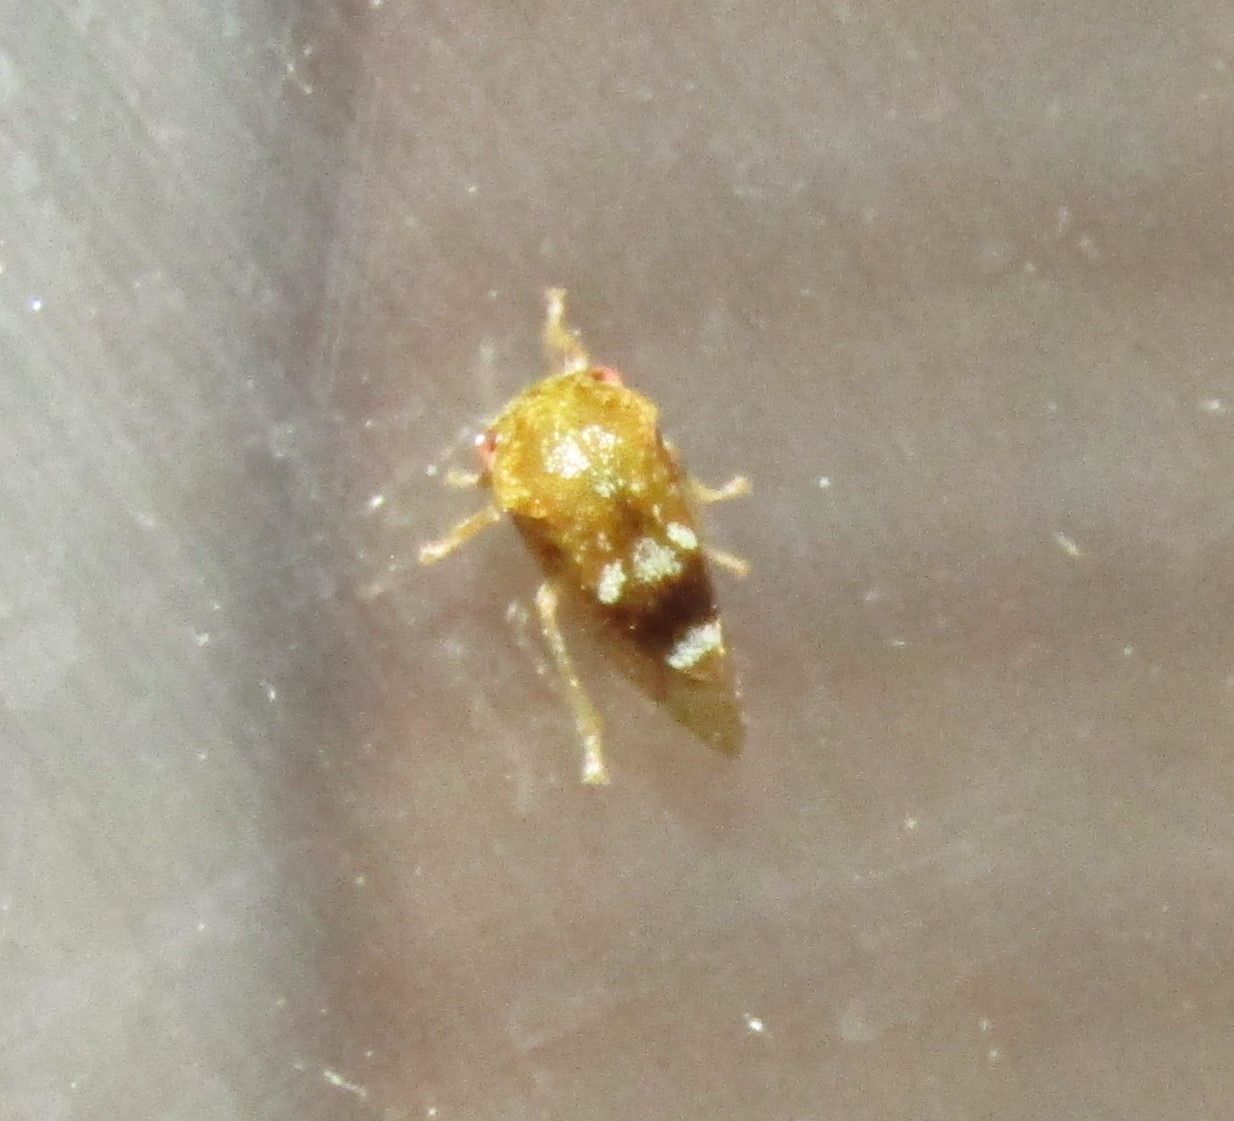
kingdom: Animalia
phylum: Arthropoda
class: Insecta
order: Hemiptera
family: Membracidae
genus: Cyrtolobus
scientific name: Cyrtolobus maculifrontis
